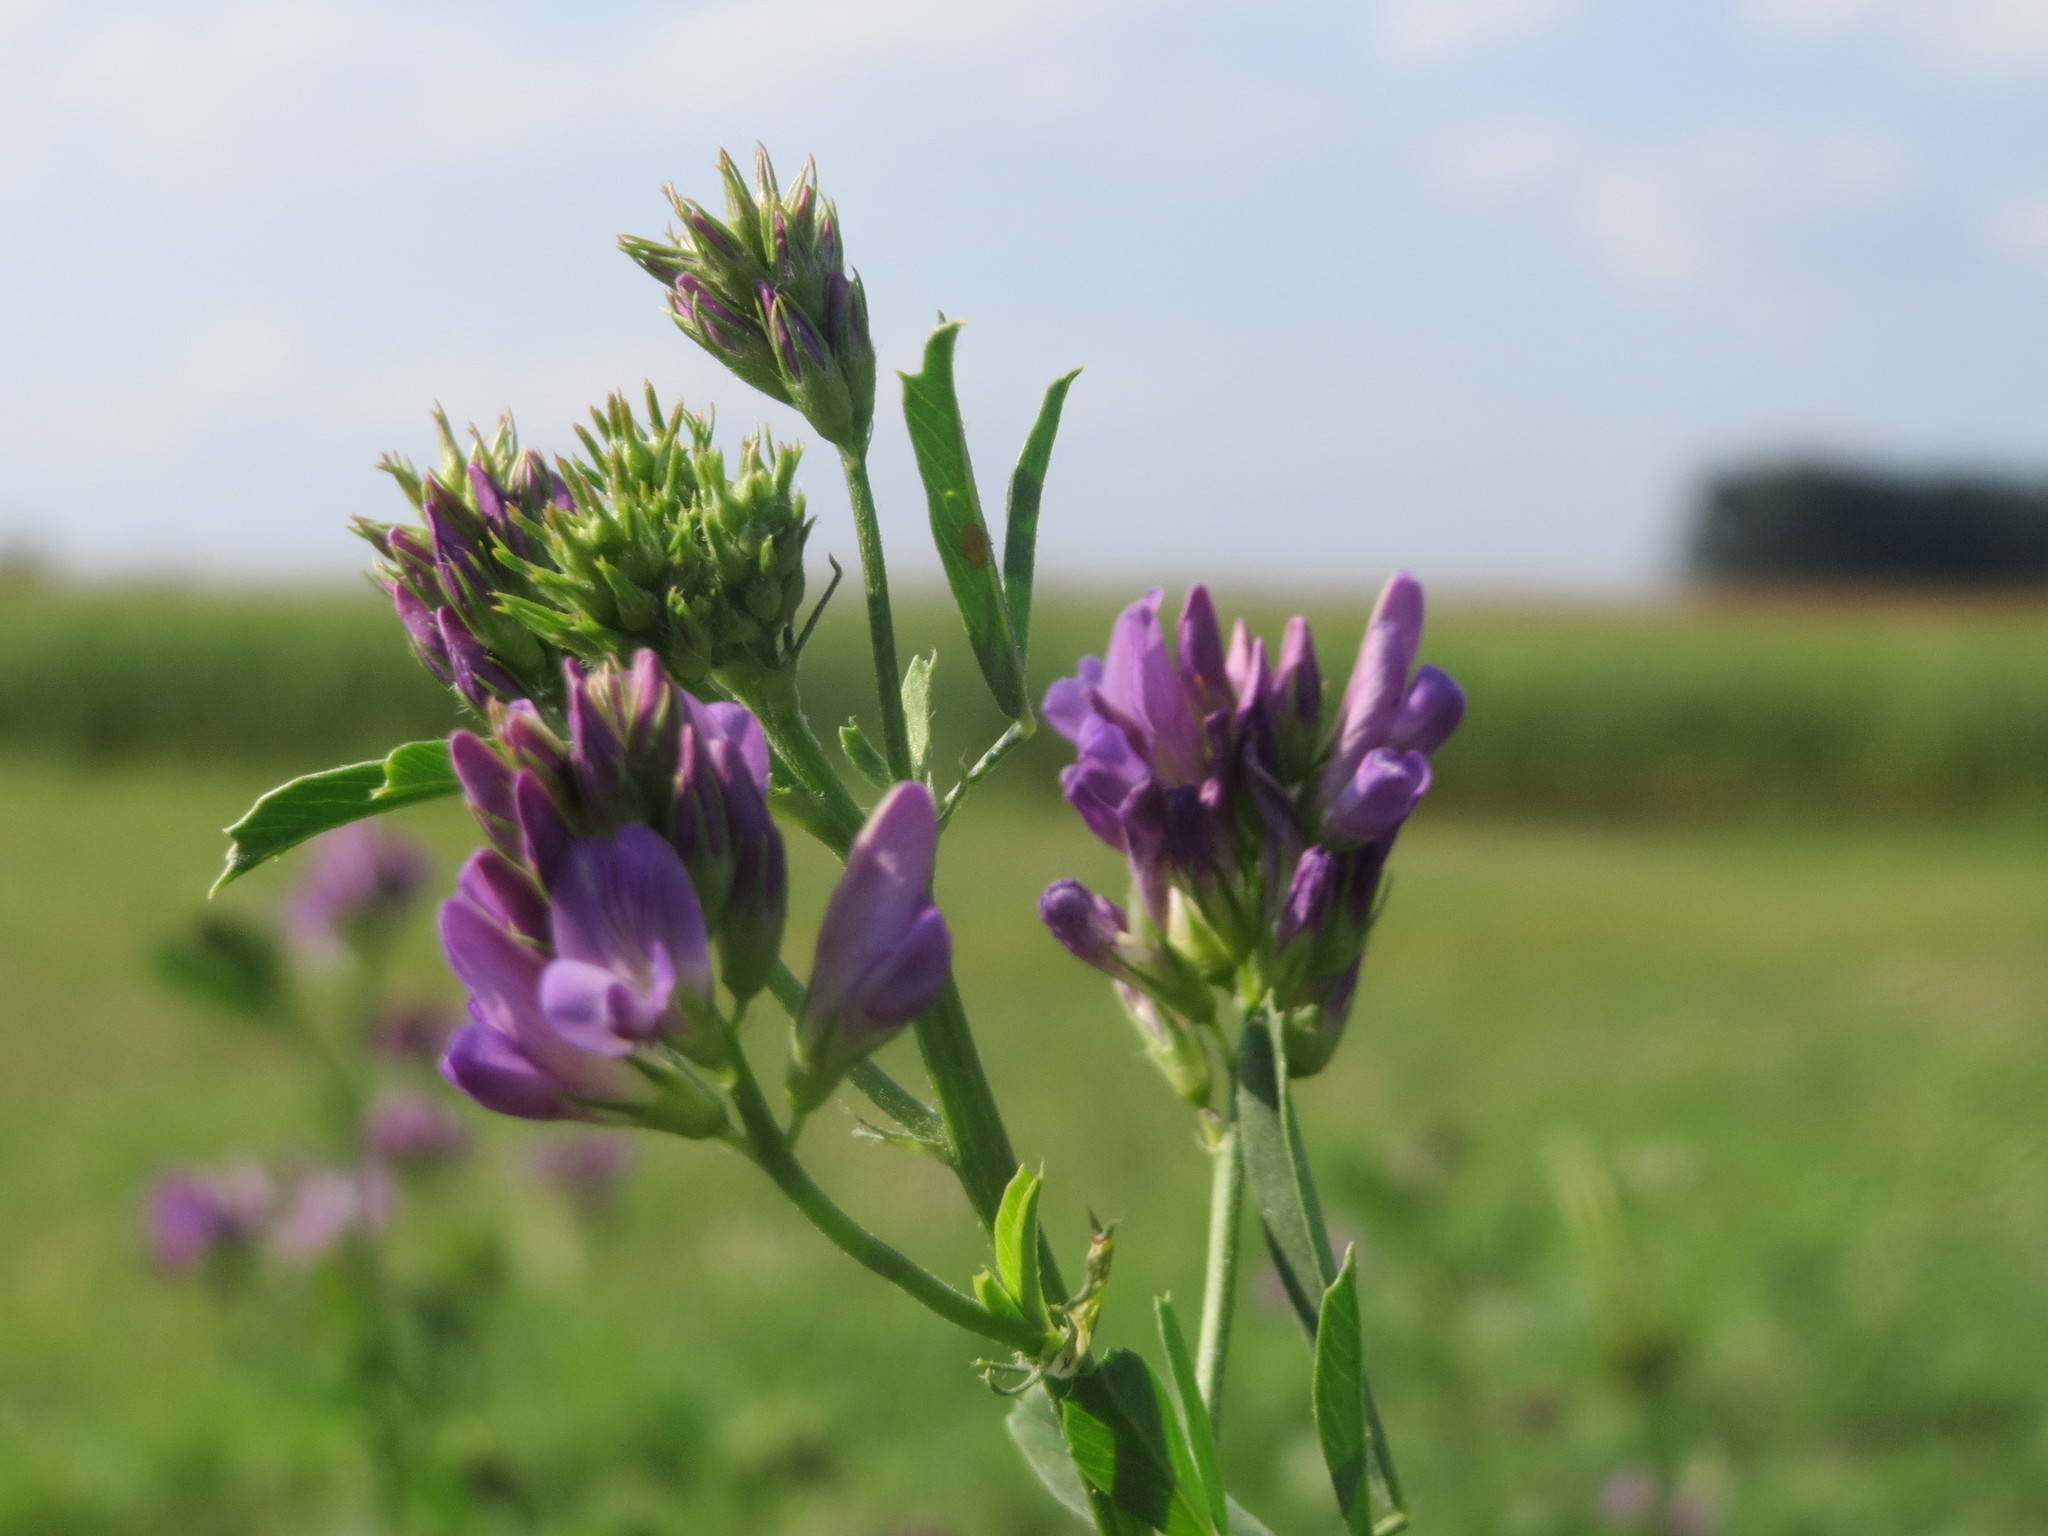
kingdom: Plantae
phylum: Tracheophyta
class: Magnoliopsida
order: Fabales
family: Fabaceae
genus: Medicago
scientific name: Medicago sativa
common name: Alfalfa
